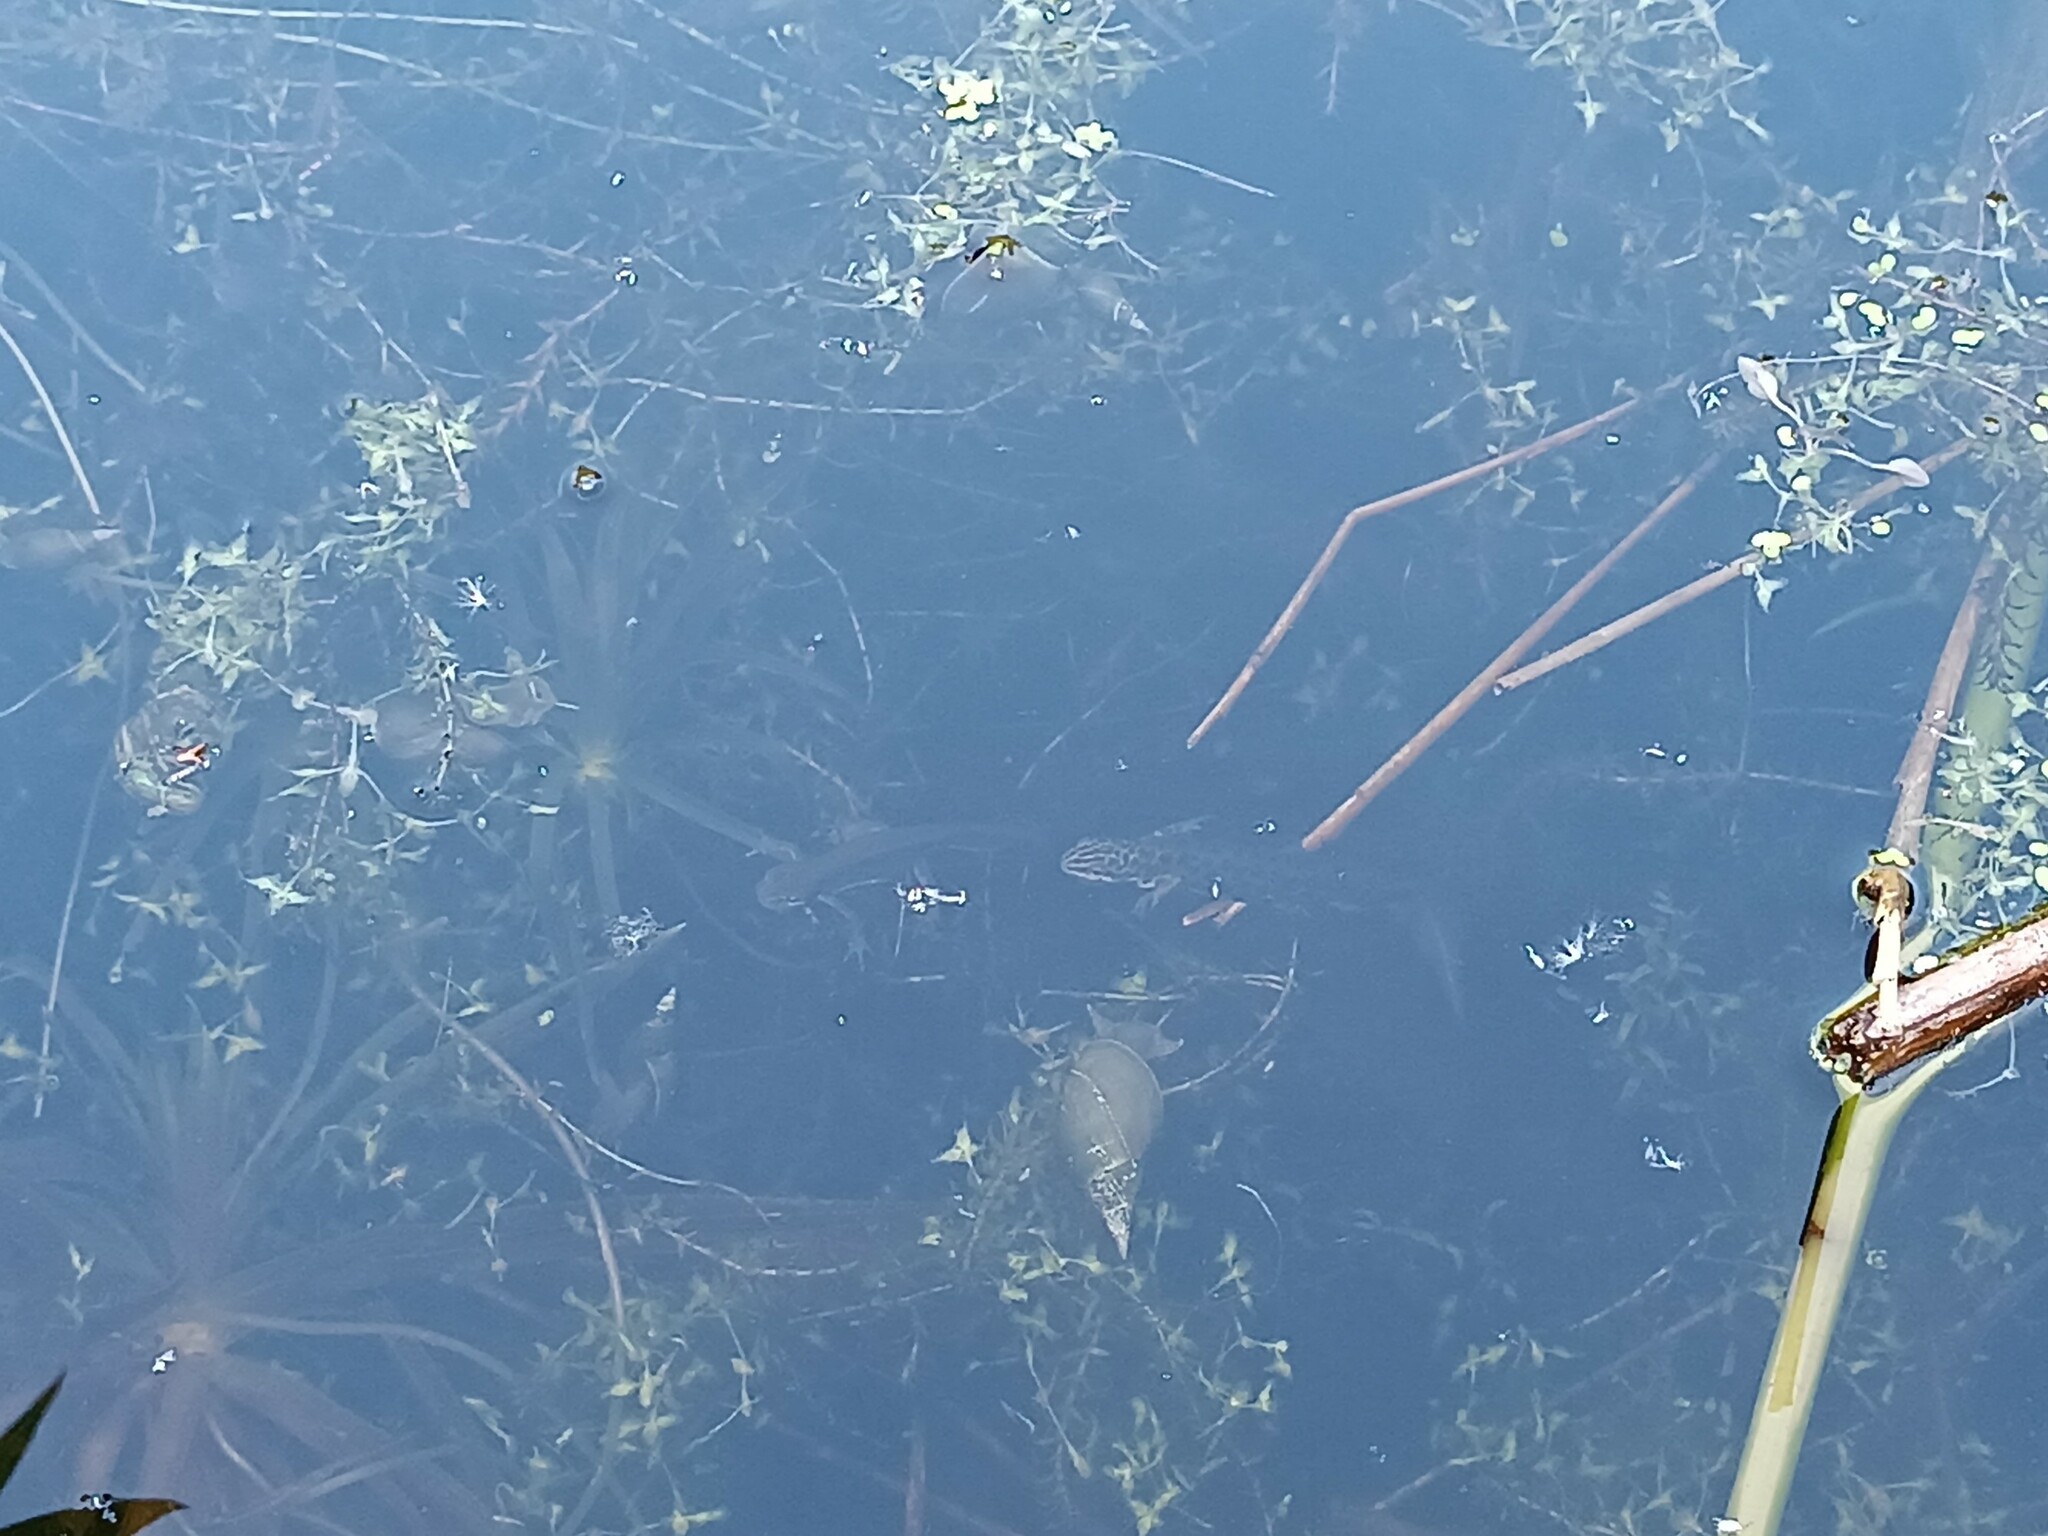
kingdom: Animalia
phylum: Chordata
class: Amphibia
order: Caudata
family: Salamandridae
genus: Lissotriton
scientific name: Lissotriton vulgaris
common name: Smooth newt
